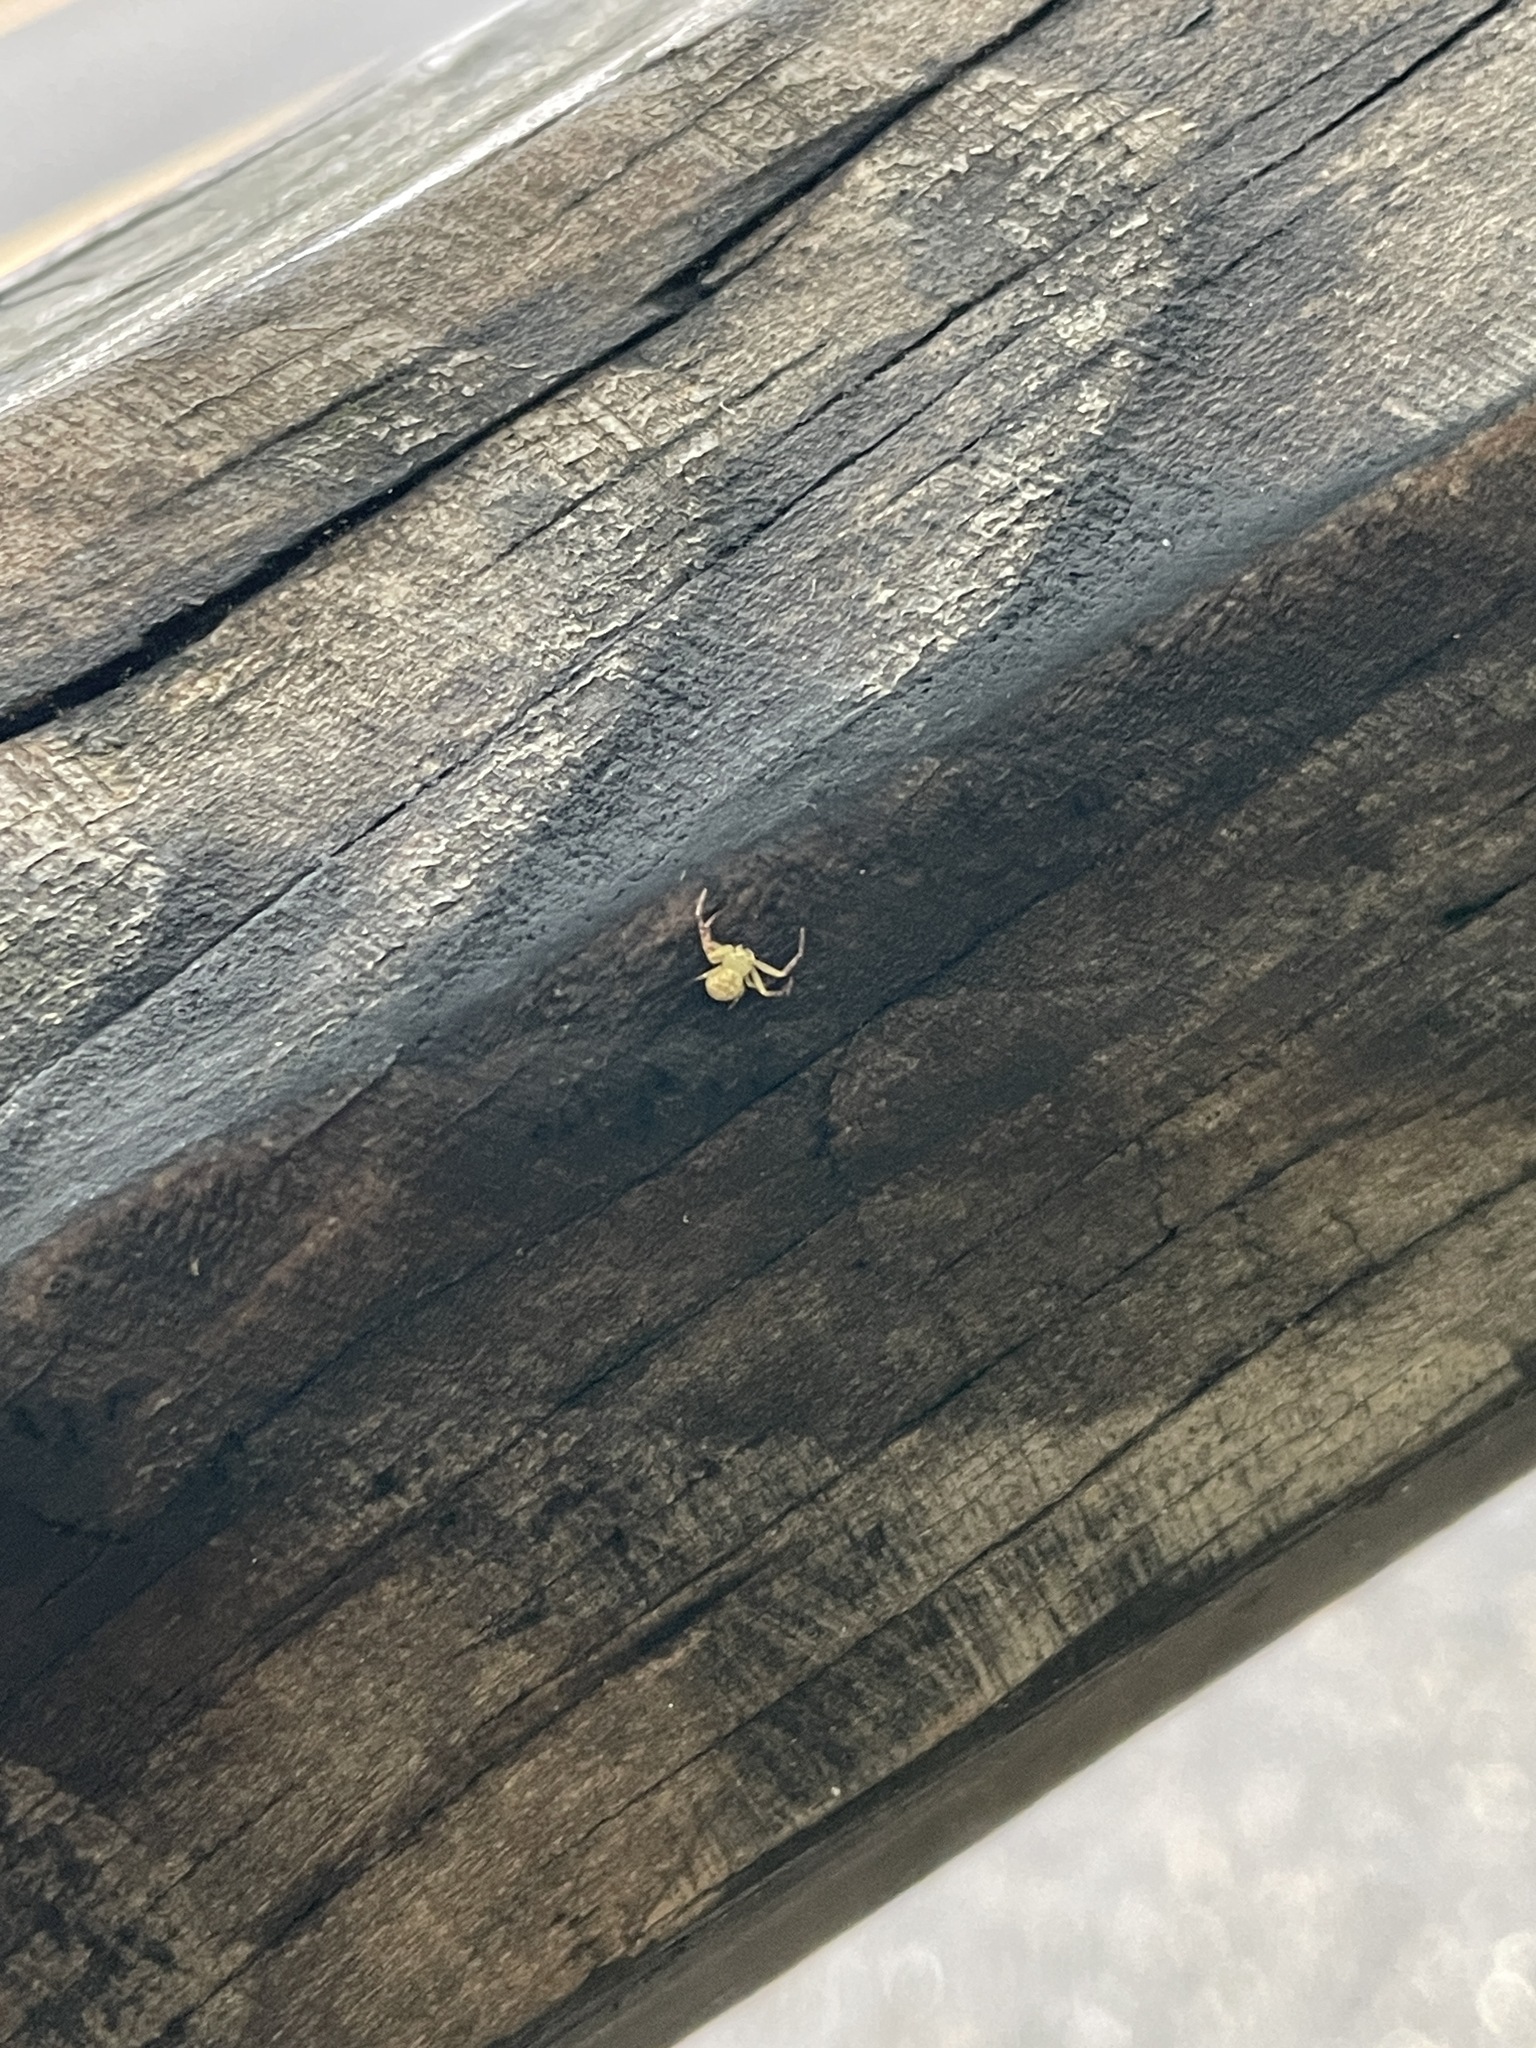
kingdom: Animalia
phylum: Arthropoda
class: Arachnida
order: Araneae
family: Thomisidae
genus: Diaea
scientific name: Diaea subdola
